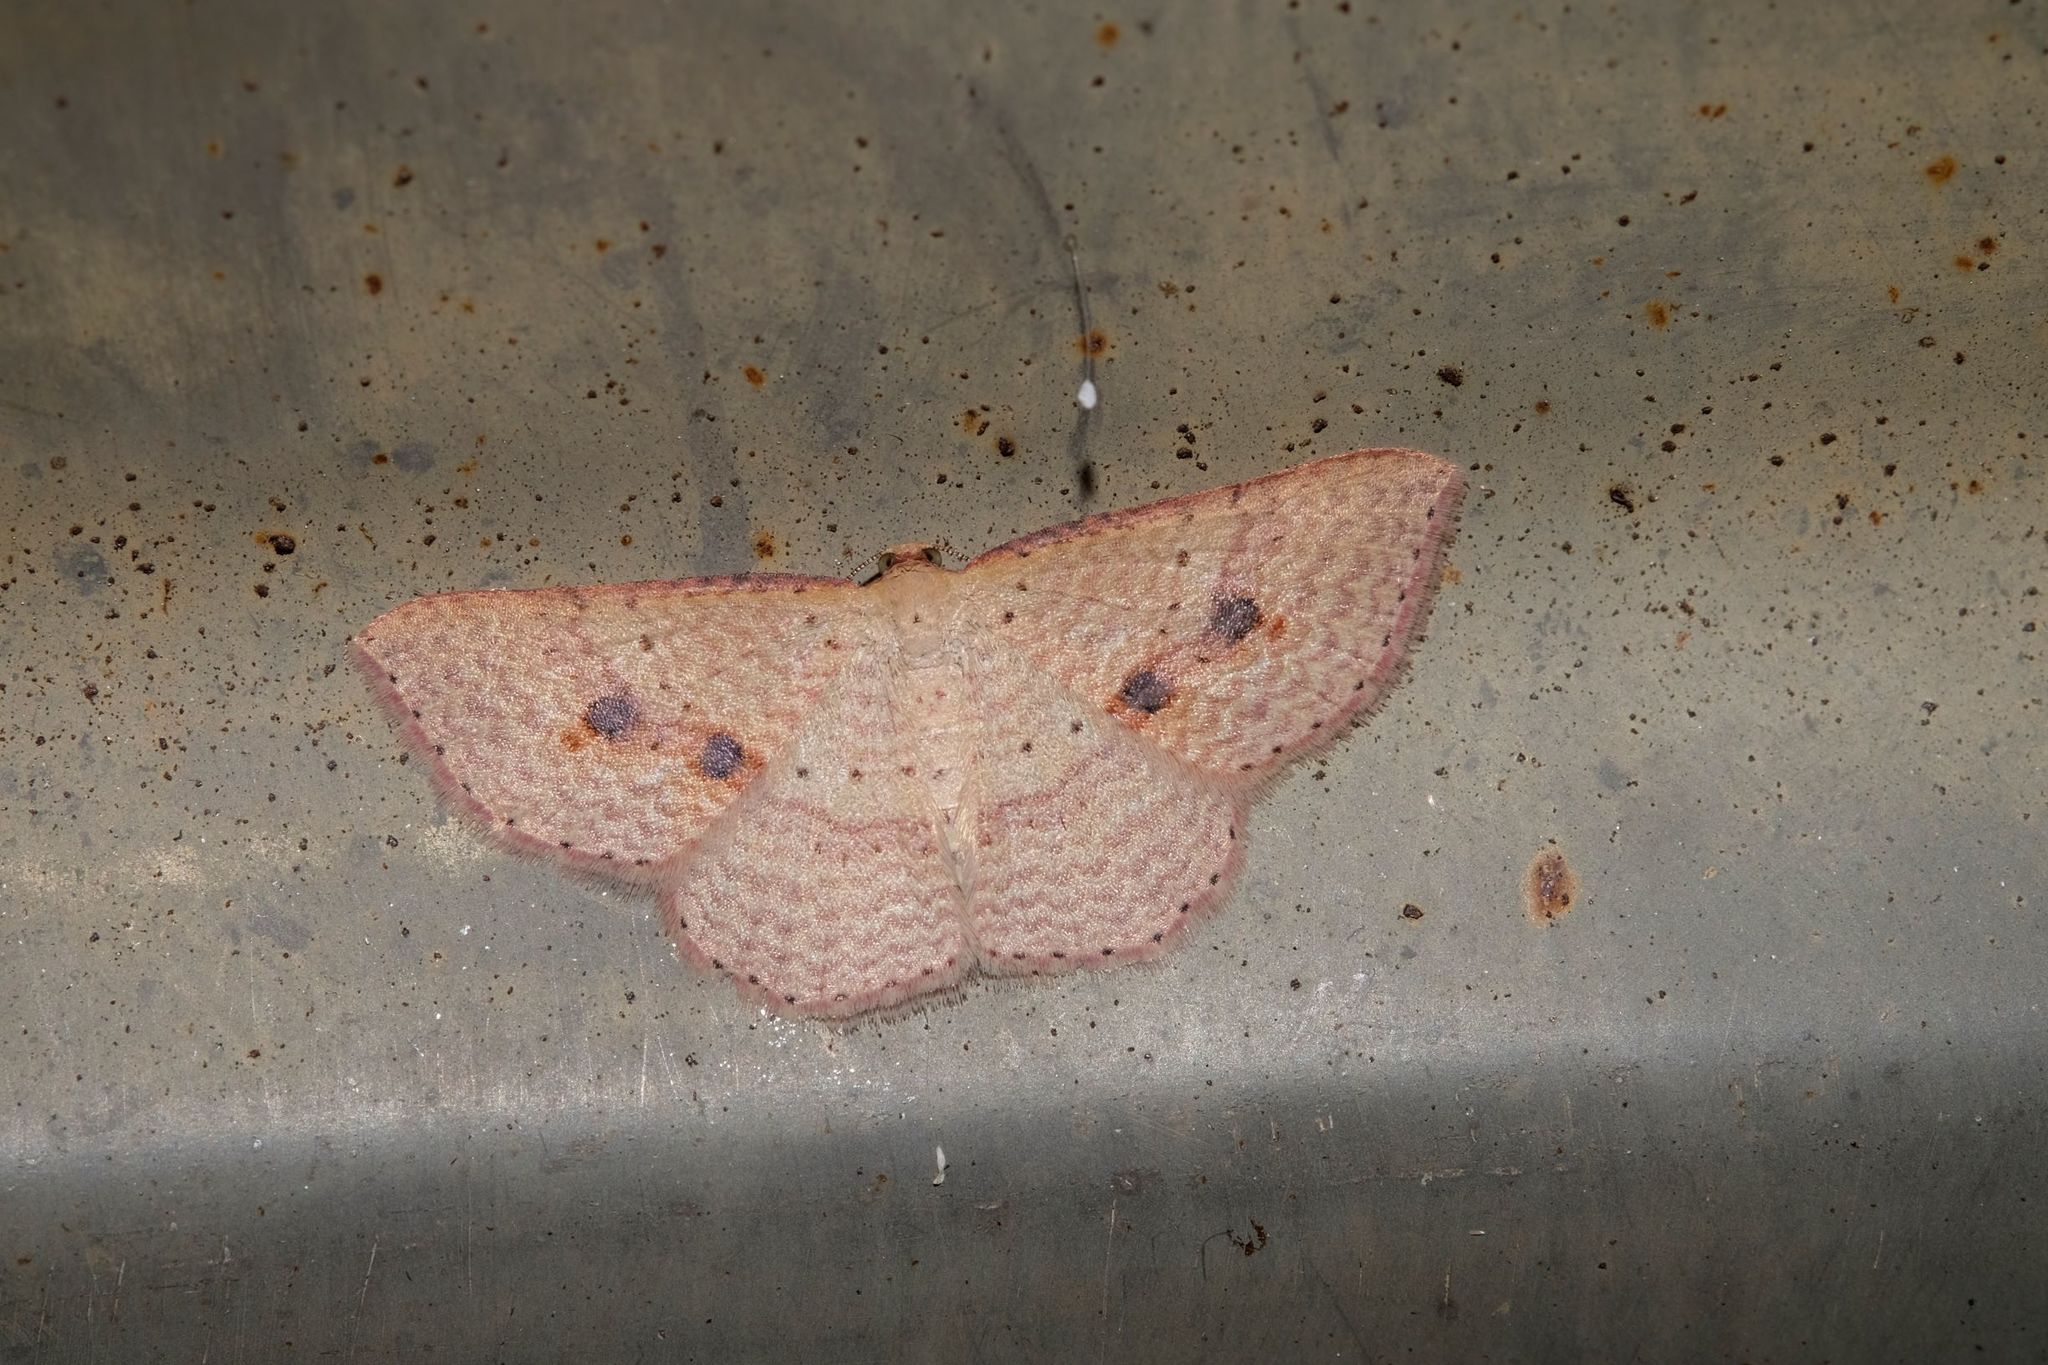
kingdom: Animalia
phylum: Arthropoda
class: Insecta
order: Lepidoptera
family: Geometridae
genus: Epicyme
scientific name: Epicyme rubropunctaria
